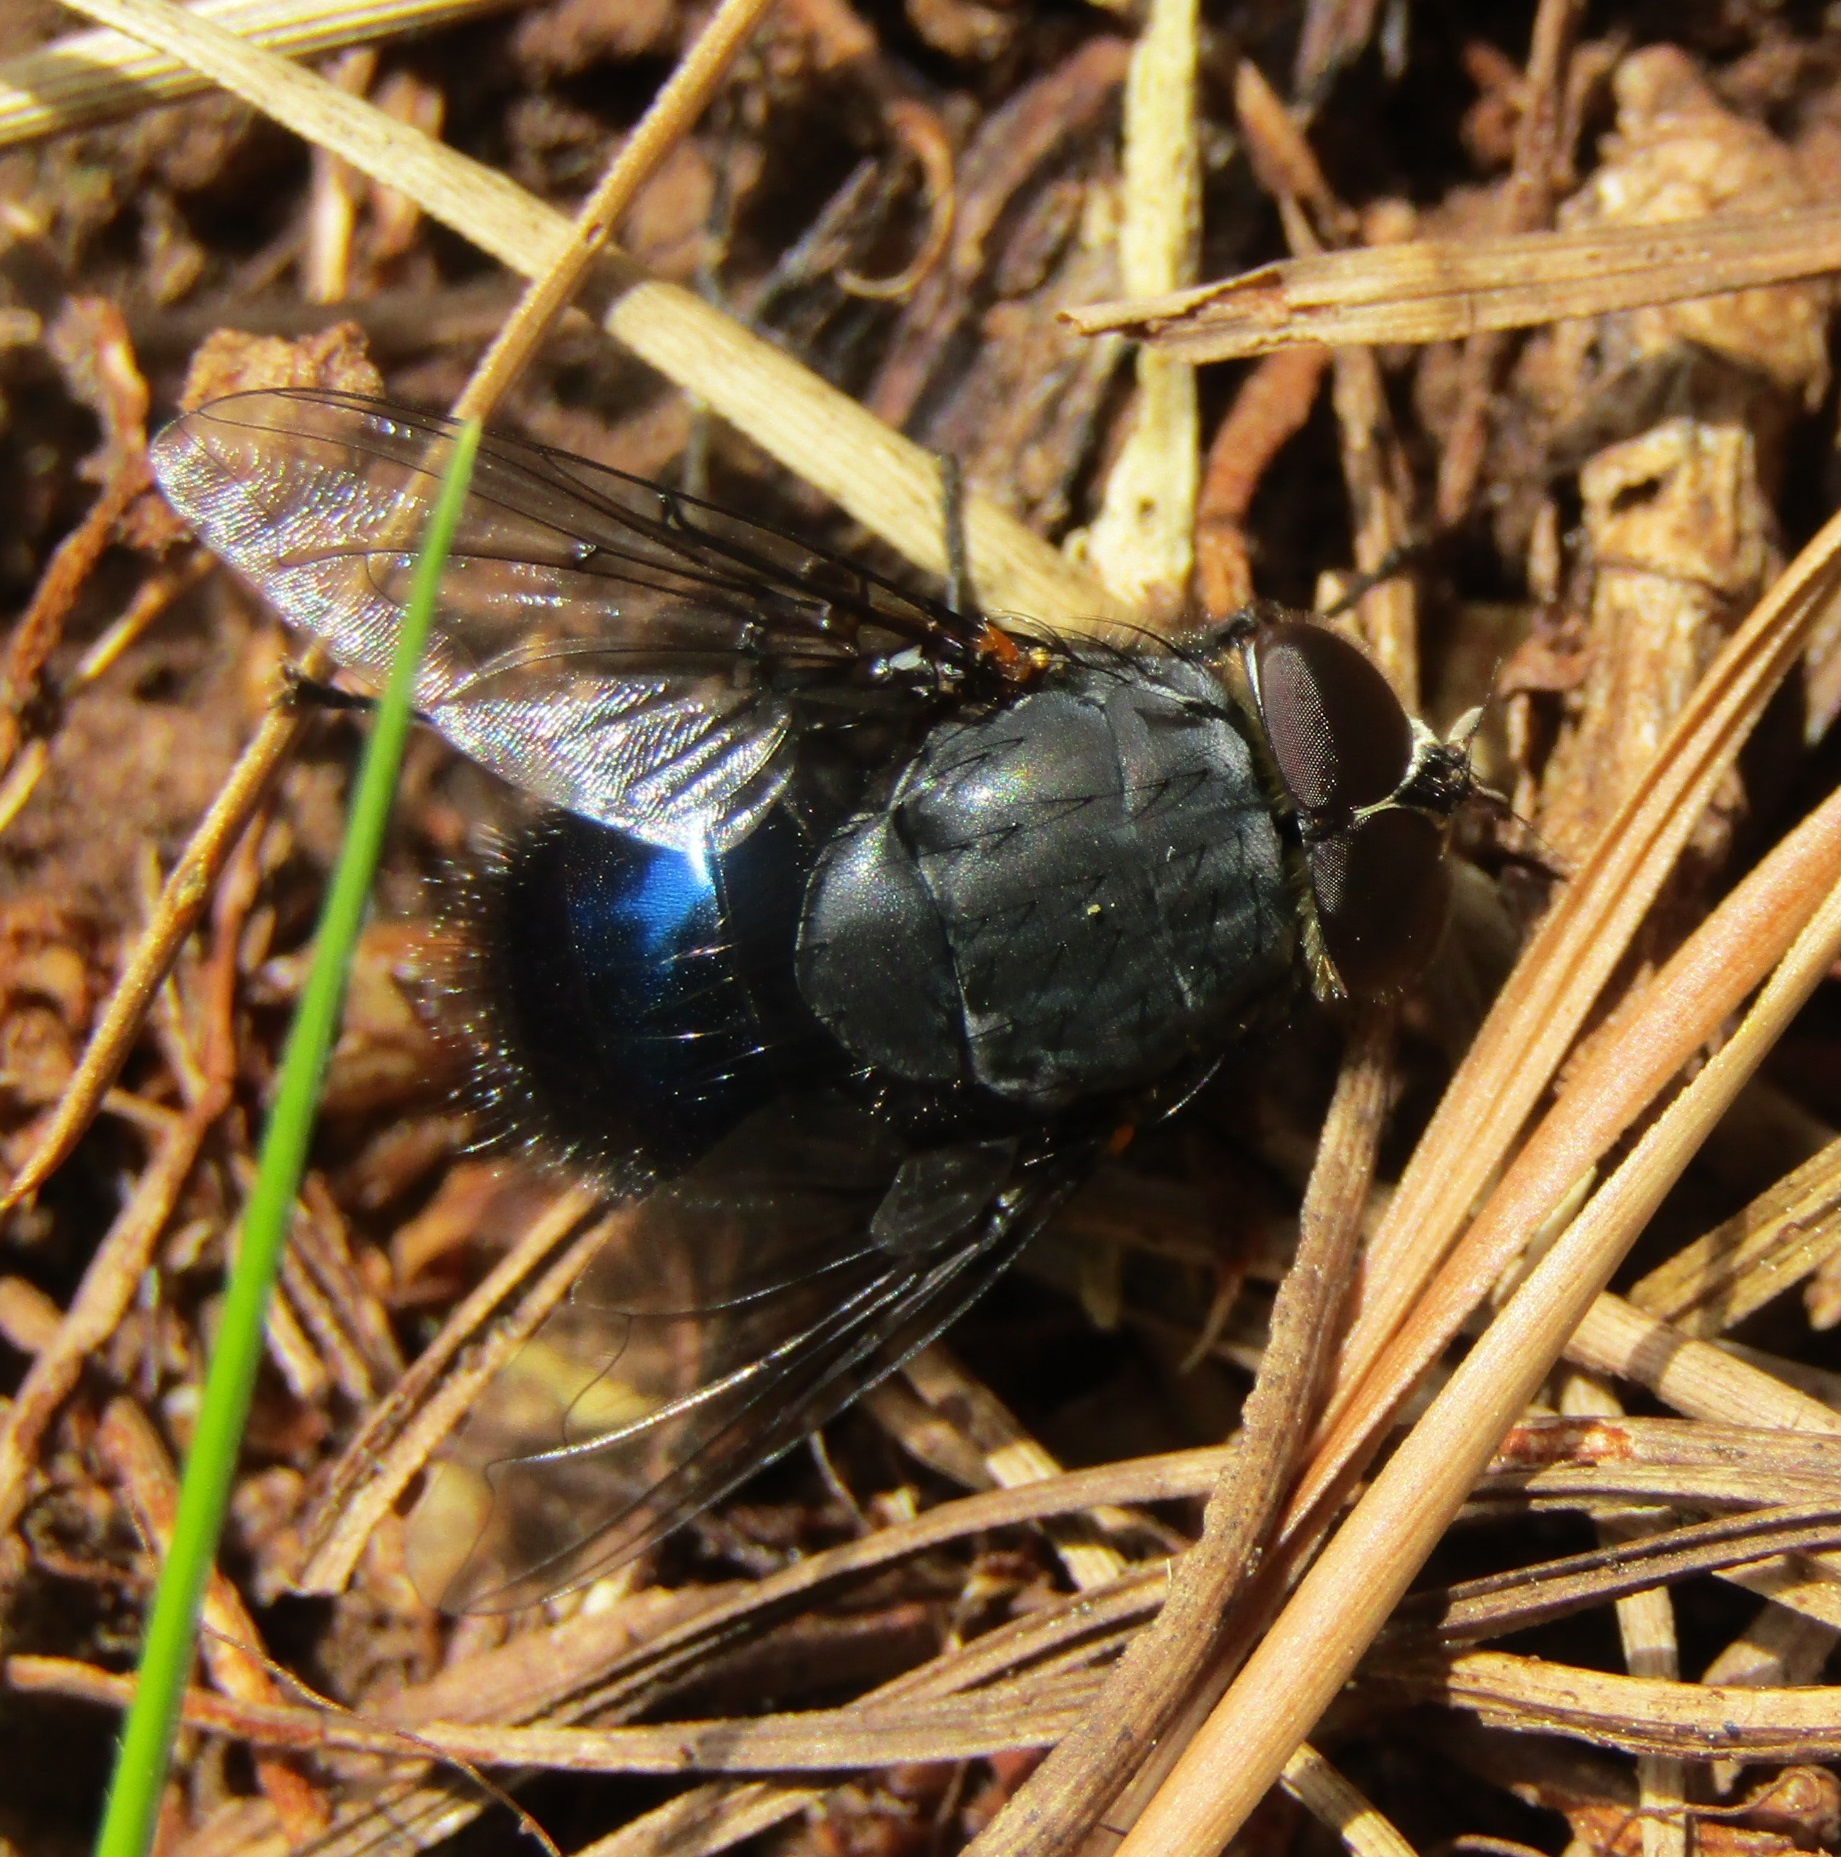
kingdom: Animalia
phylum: Arthropoda
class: Insecta
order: Diptera
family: Calliphoridae
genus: Calliphora
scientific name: Calliphora quadrimaculata
